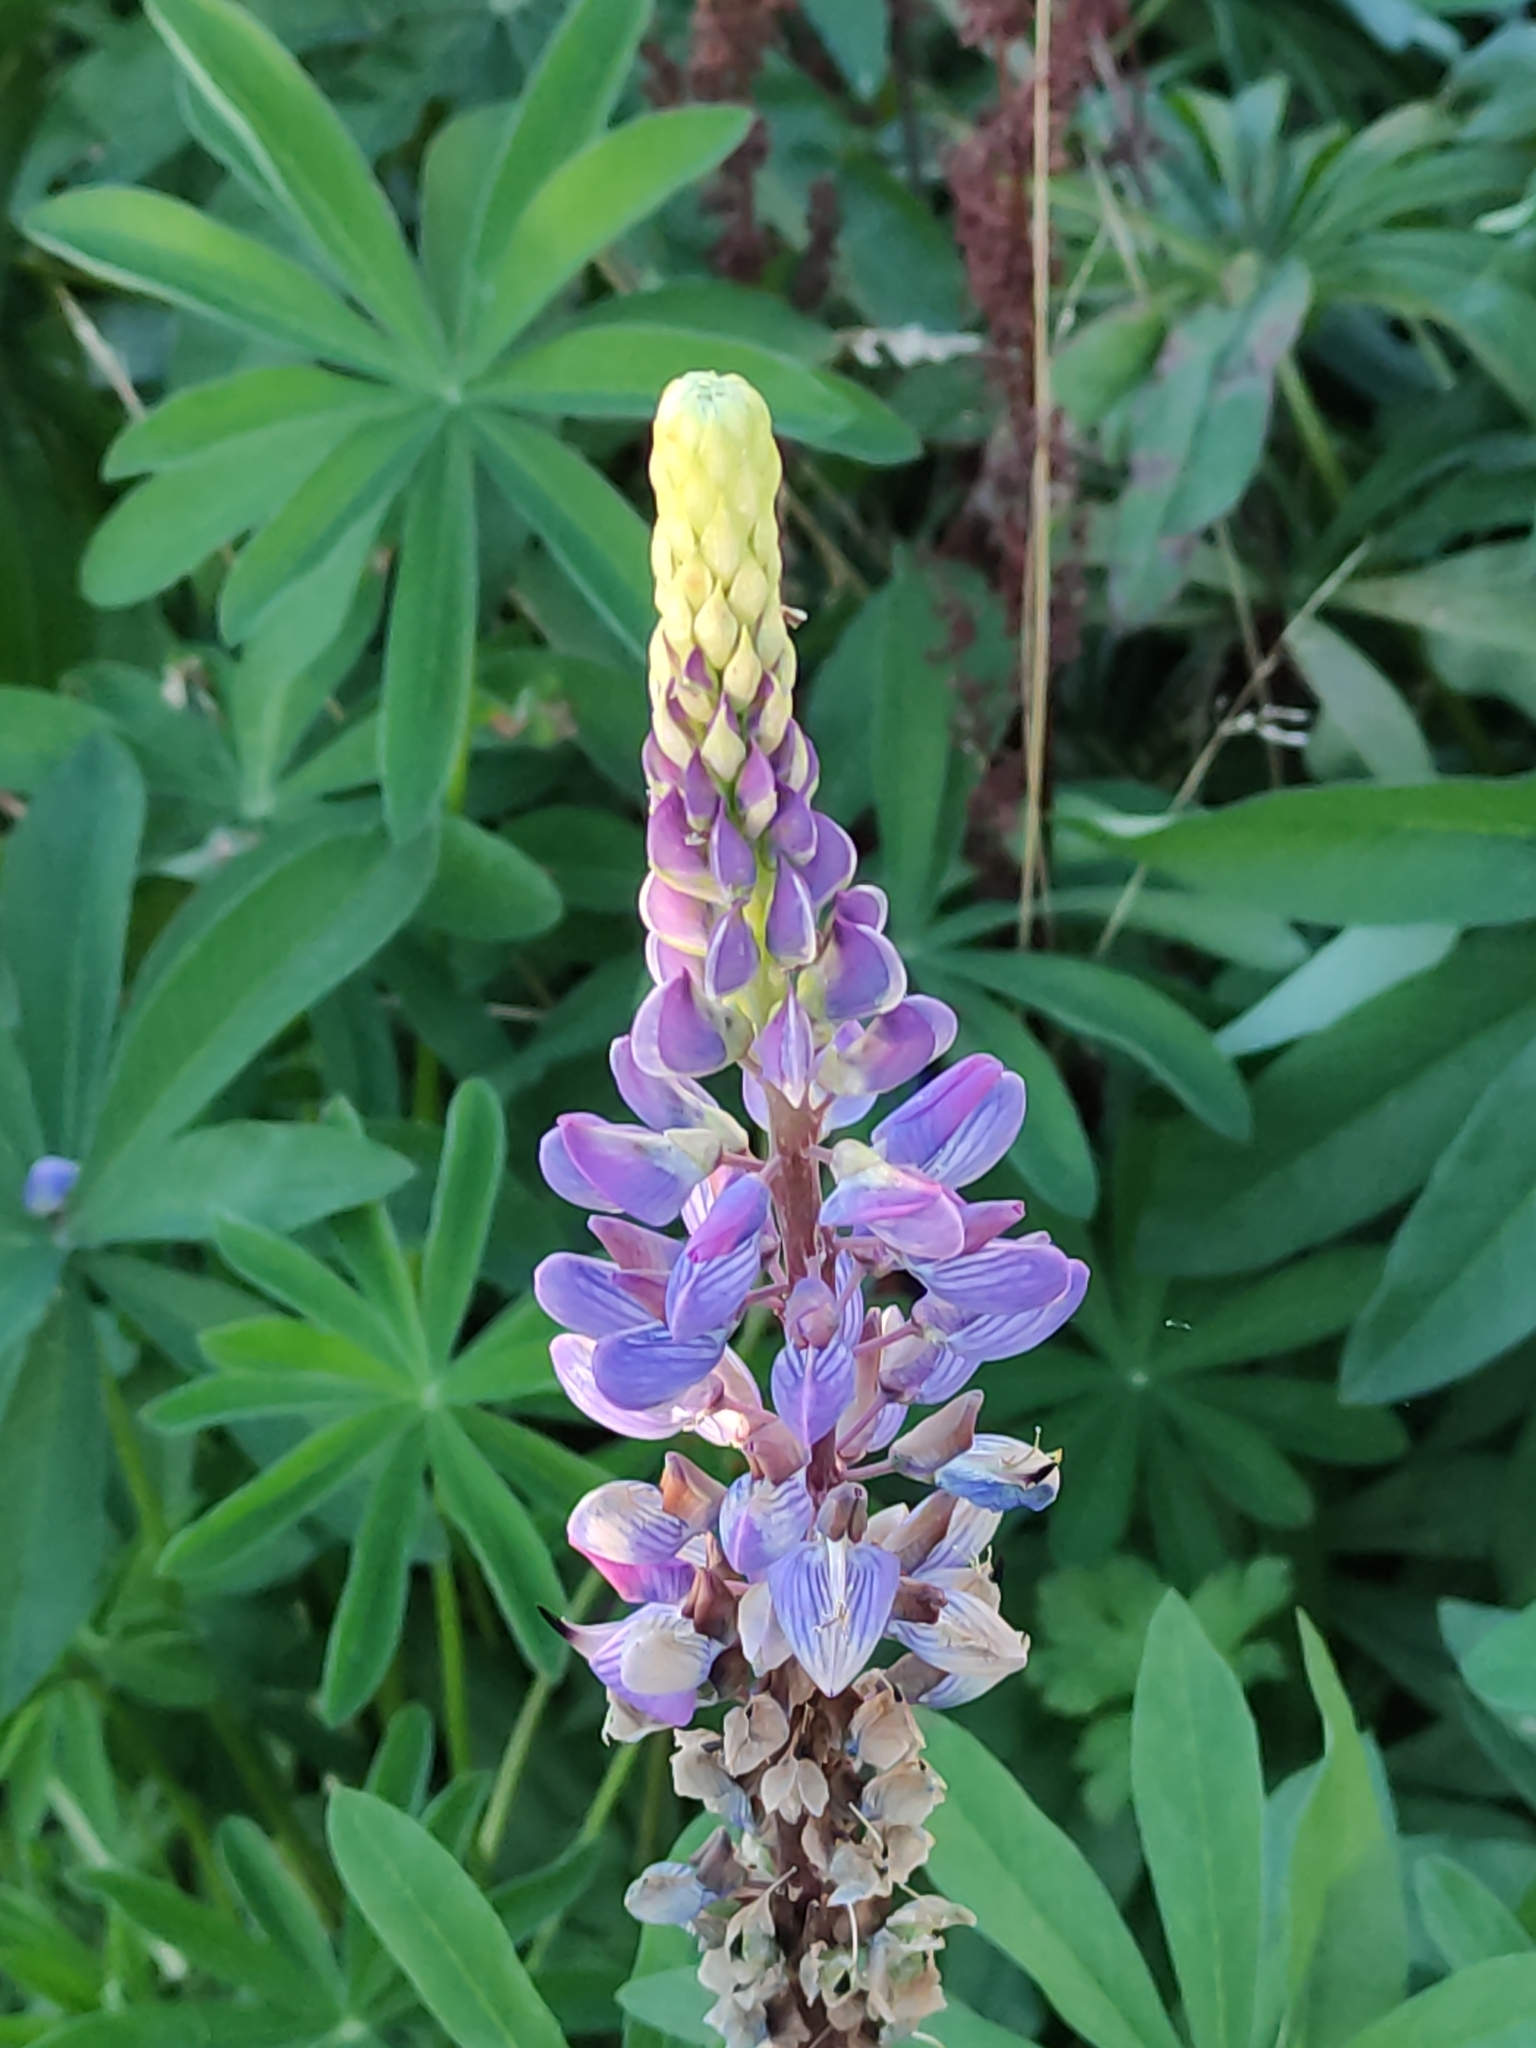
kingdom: Plantae
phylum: Tracheophyta
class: Magnoliopsida
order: Fabales
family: Fabaceae
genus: Lupinus
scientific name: Lupinus polyphyllus
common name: Garden lupin
